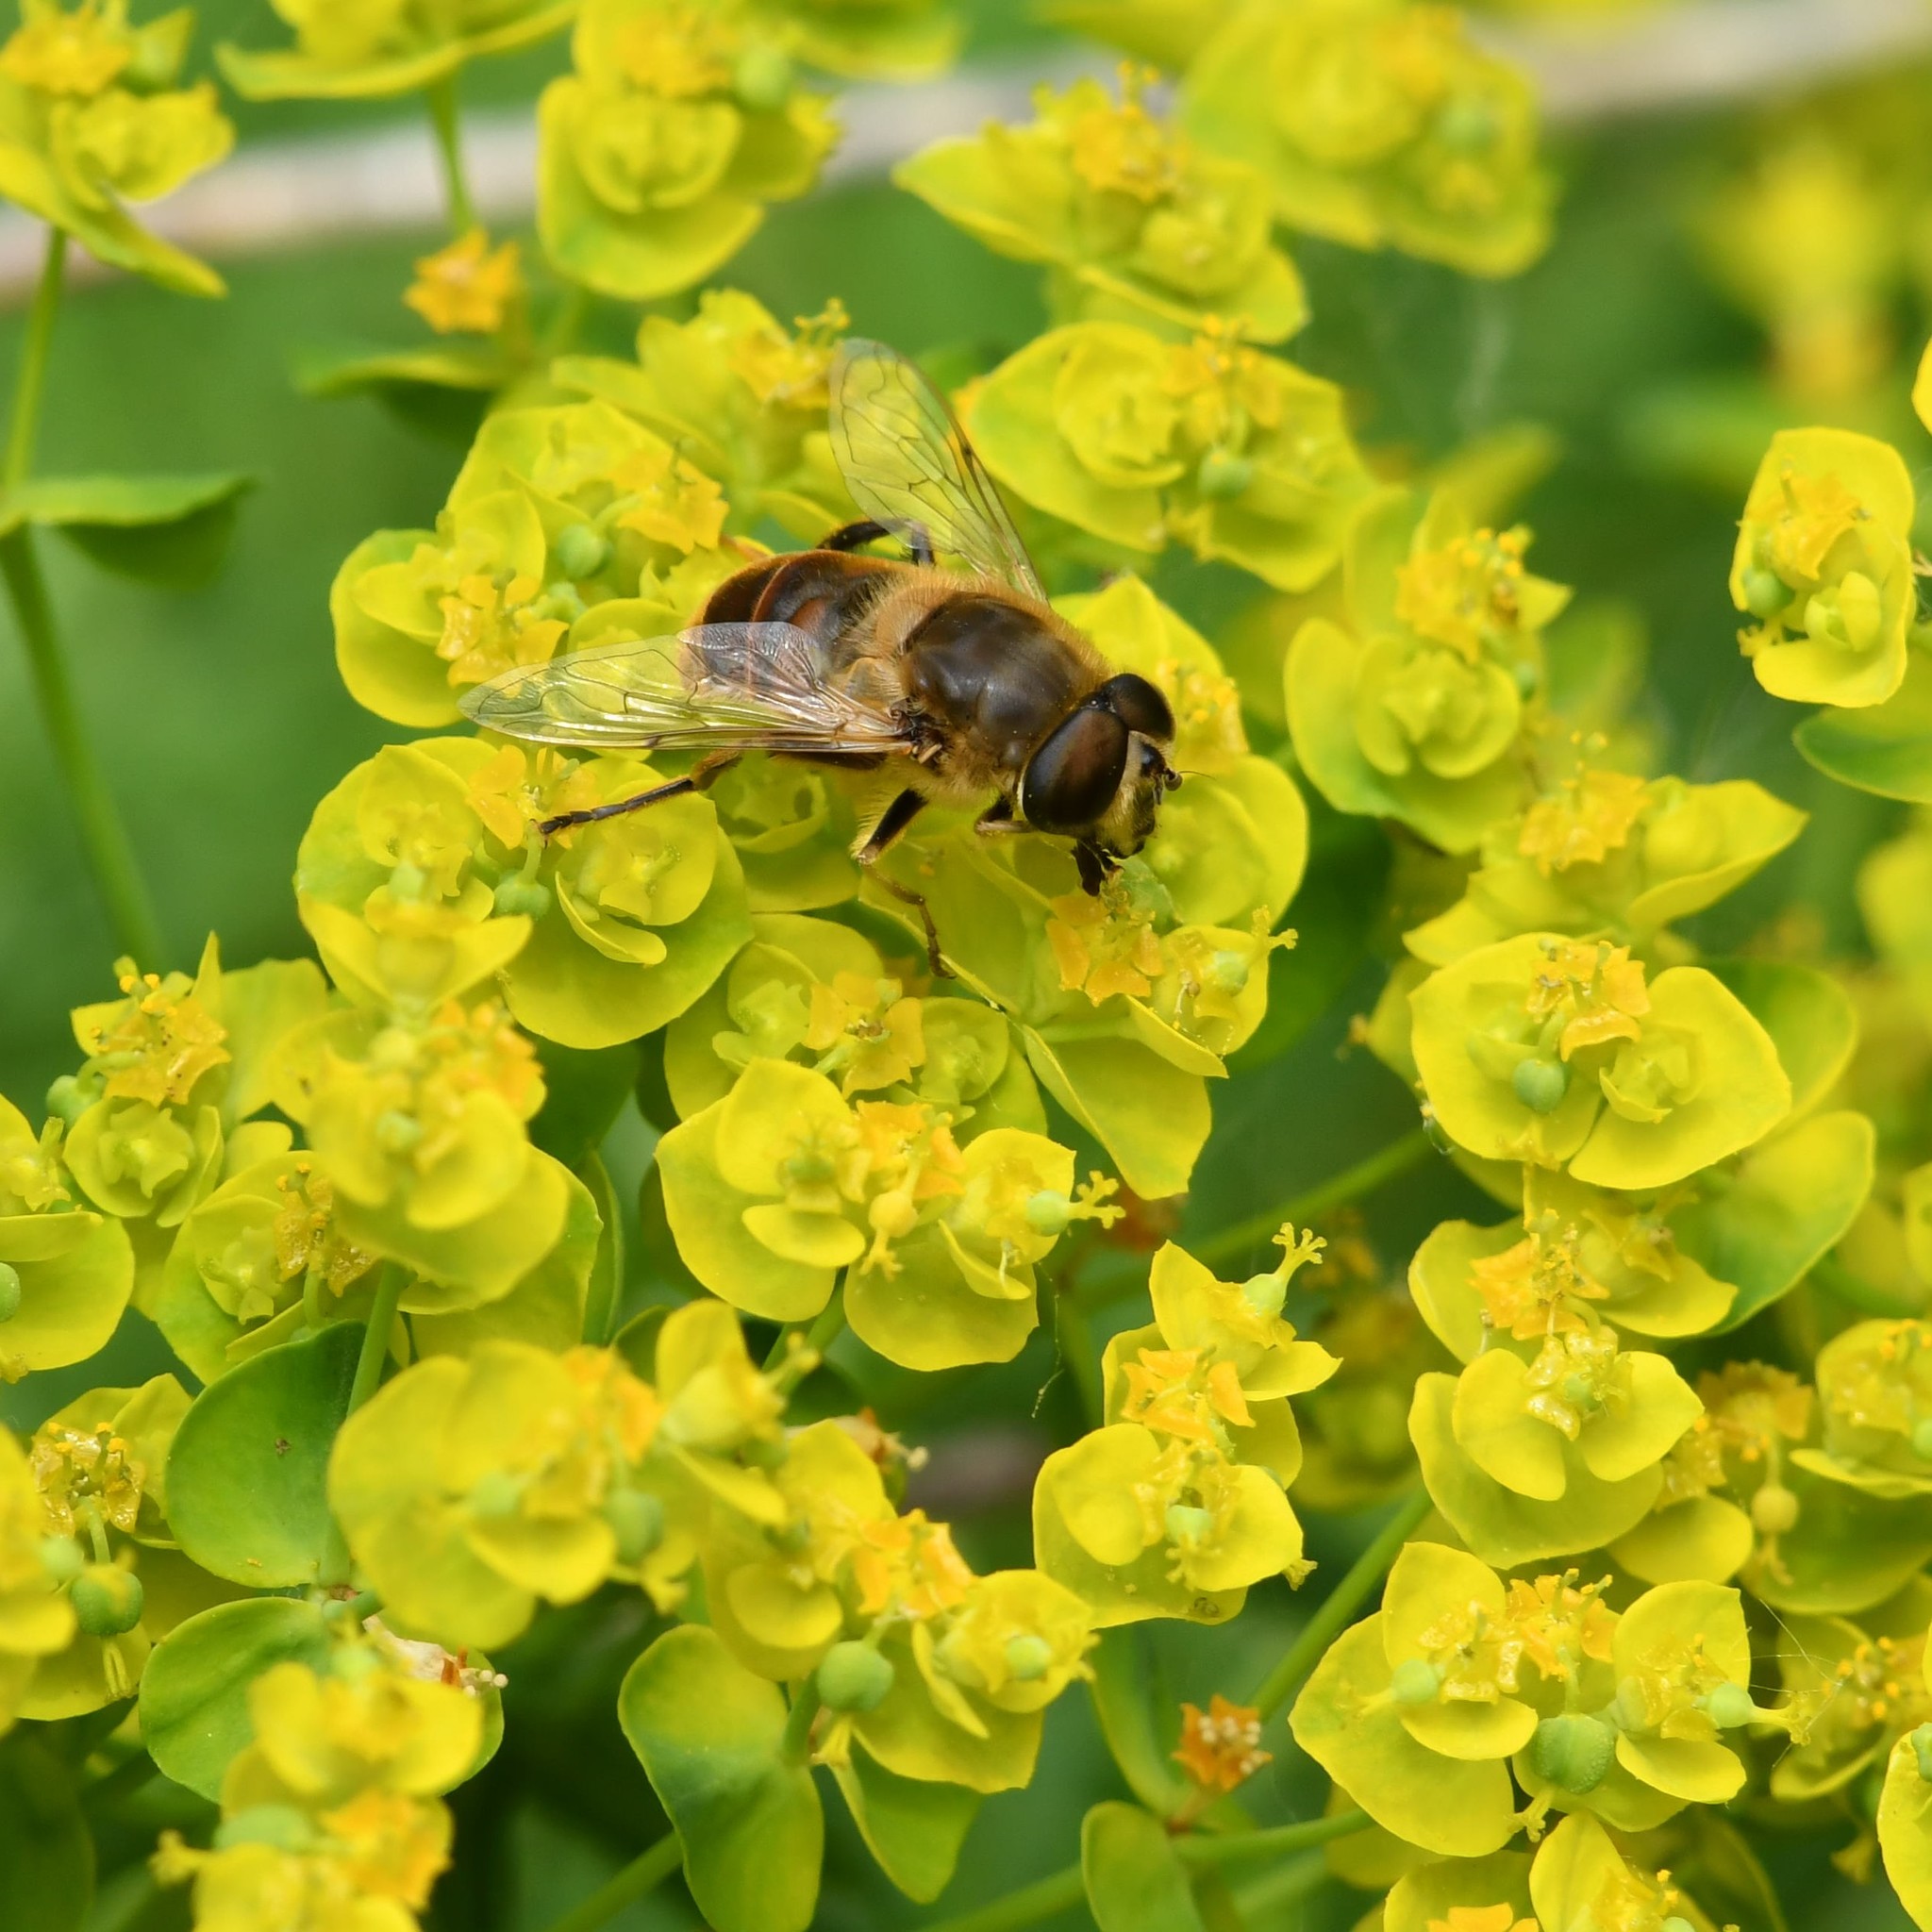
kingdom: Animalia
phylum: Arthropoda
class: Insecta
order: Diptera
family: Syrphidae
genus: Eristalis
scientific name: Eristalis tenax
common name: Drone fly
